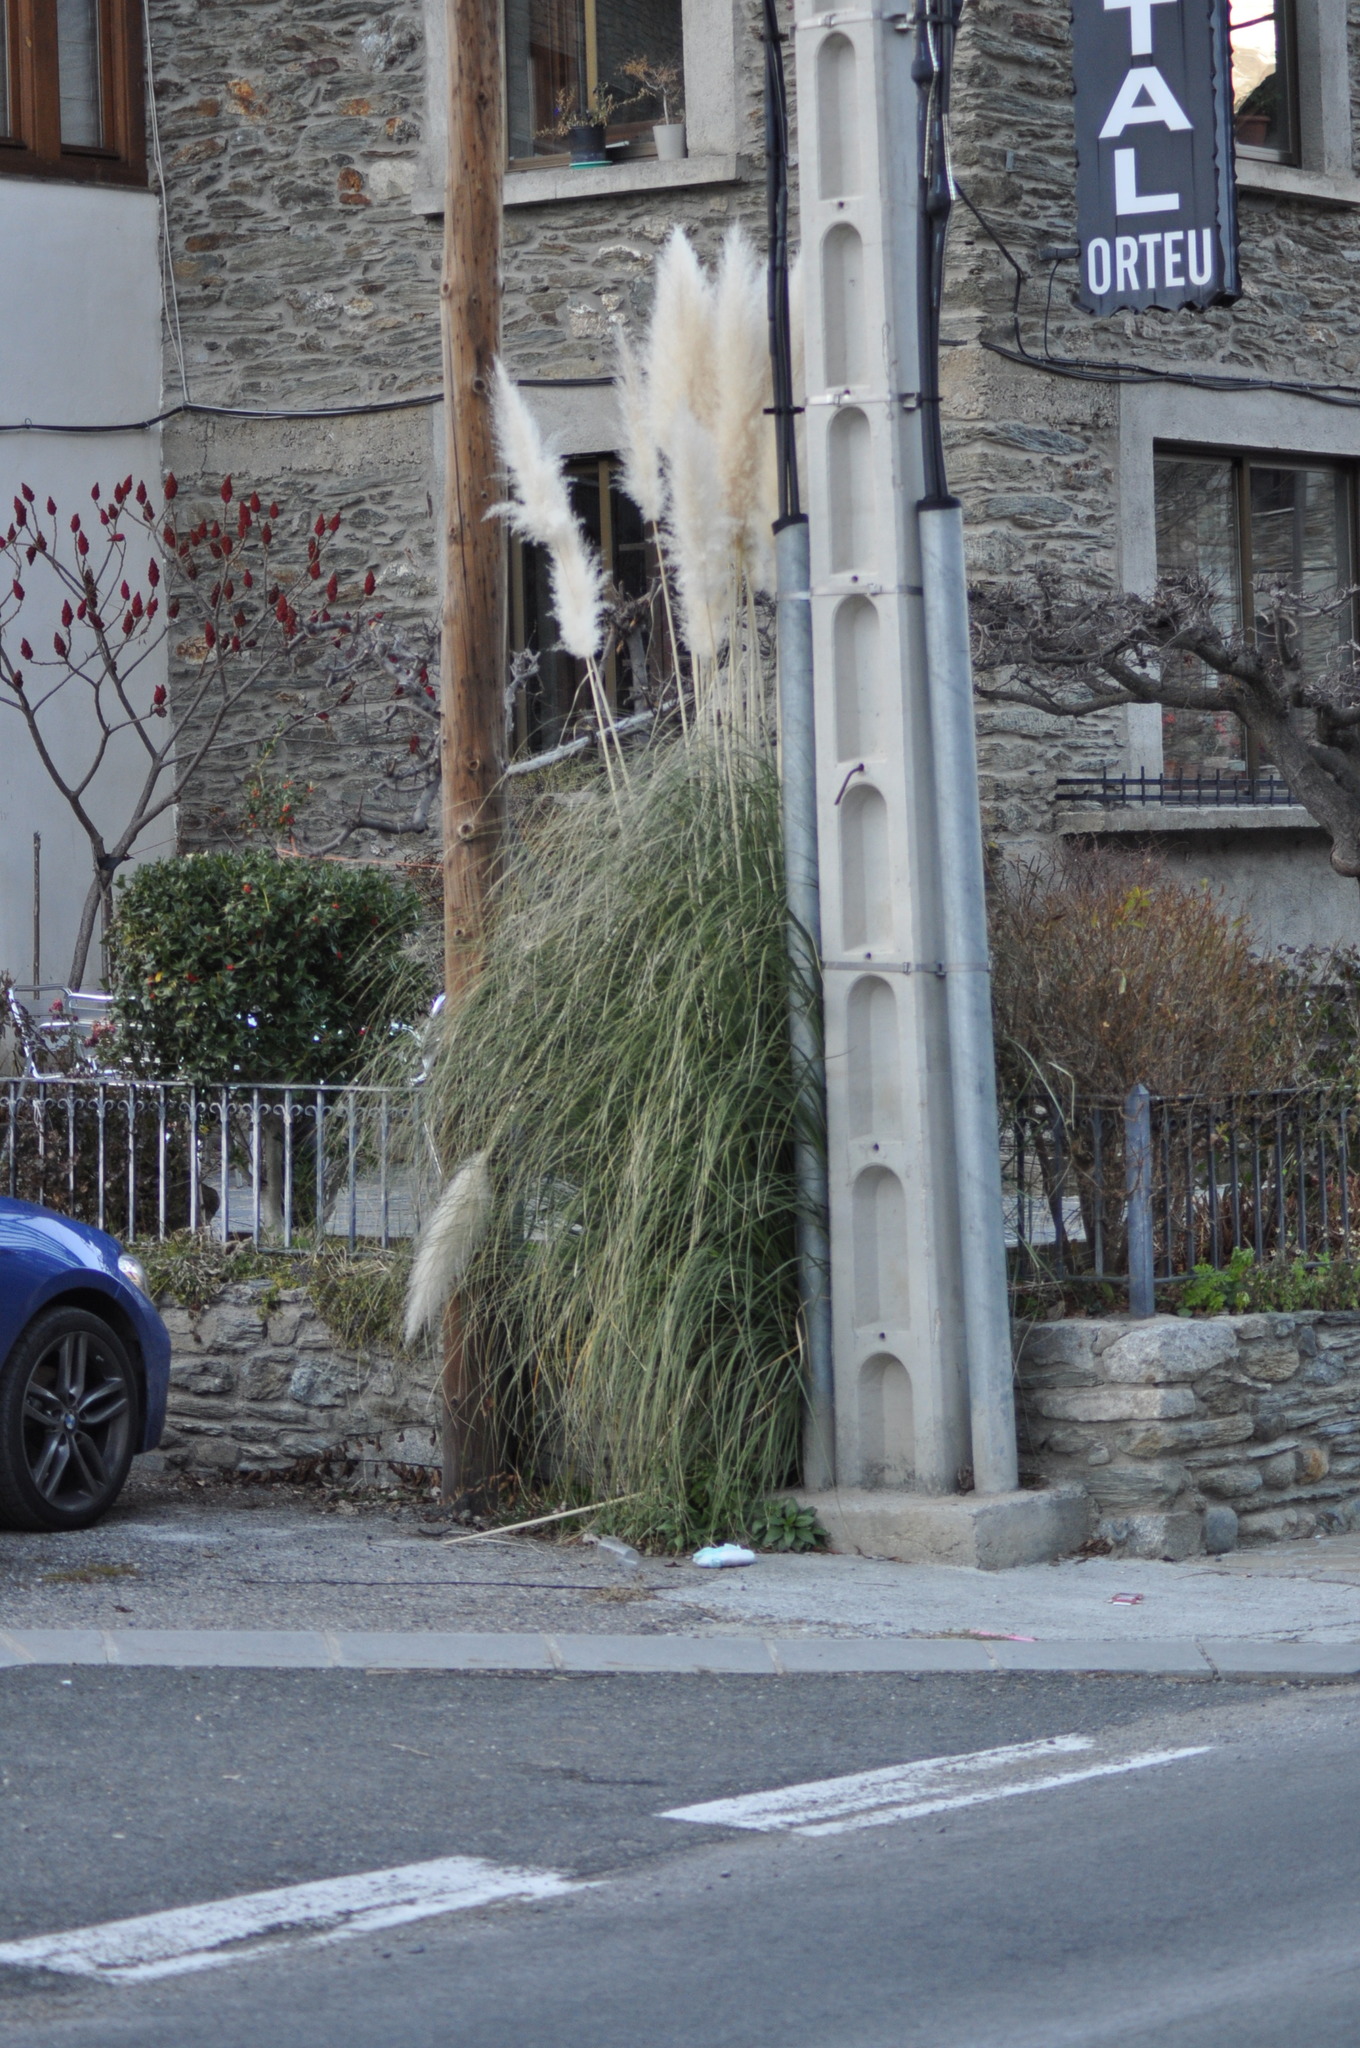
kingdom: Plantae
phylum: Tracheophyta
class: Liliopsida
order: Poales
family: Poaceae
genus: Cortaderia
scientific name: Cortaderia selloana
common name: Uruguayan pampas grass
